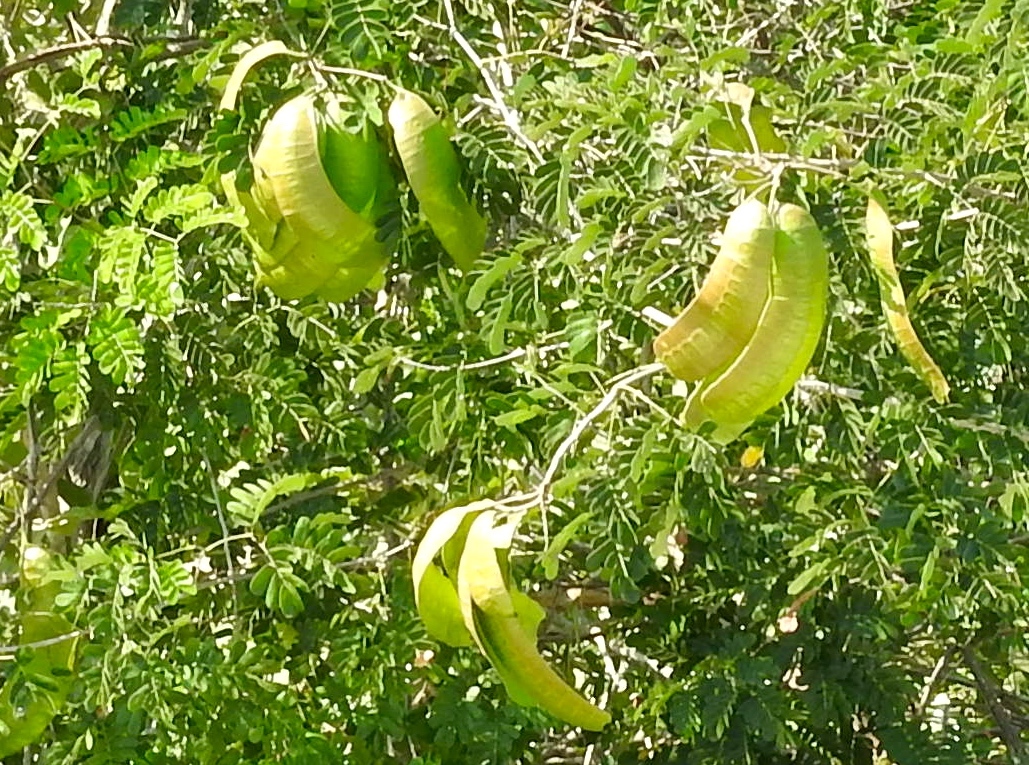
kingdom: Plantae
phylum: Tracheophyta
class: Magnoliopsida
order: Fabales
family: Fabaceae
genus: Entada
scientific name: Entada polystachya
